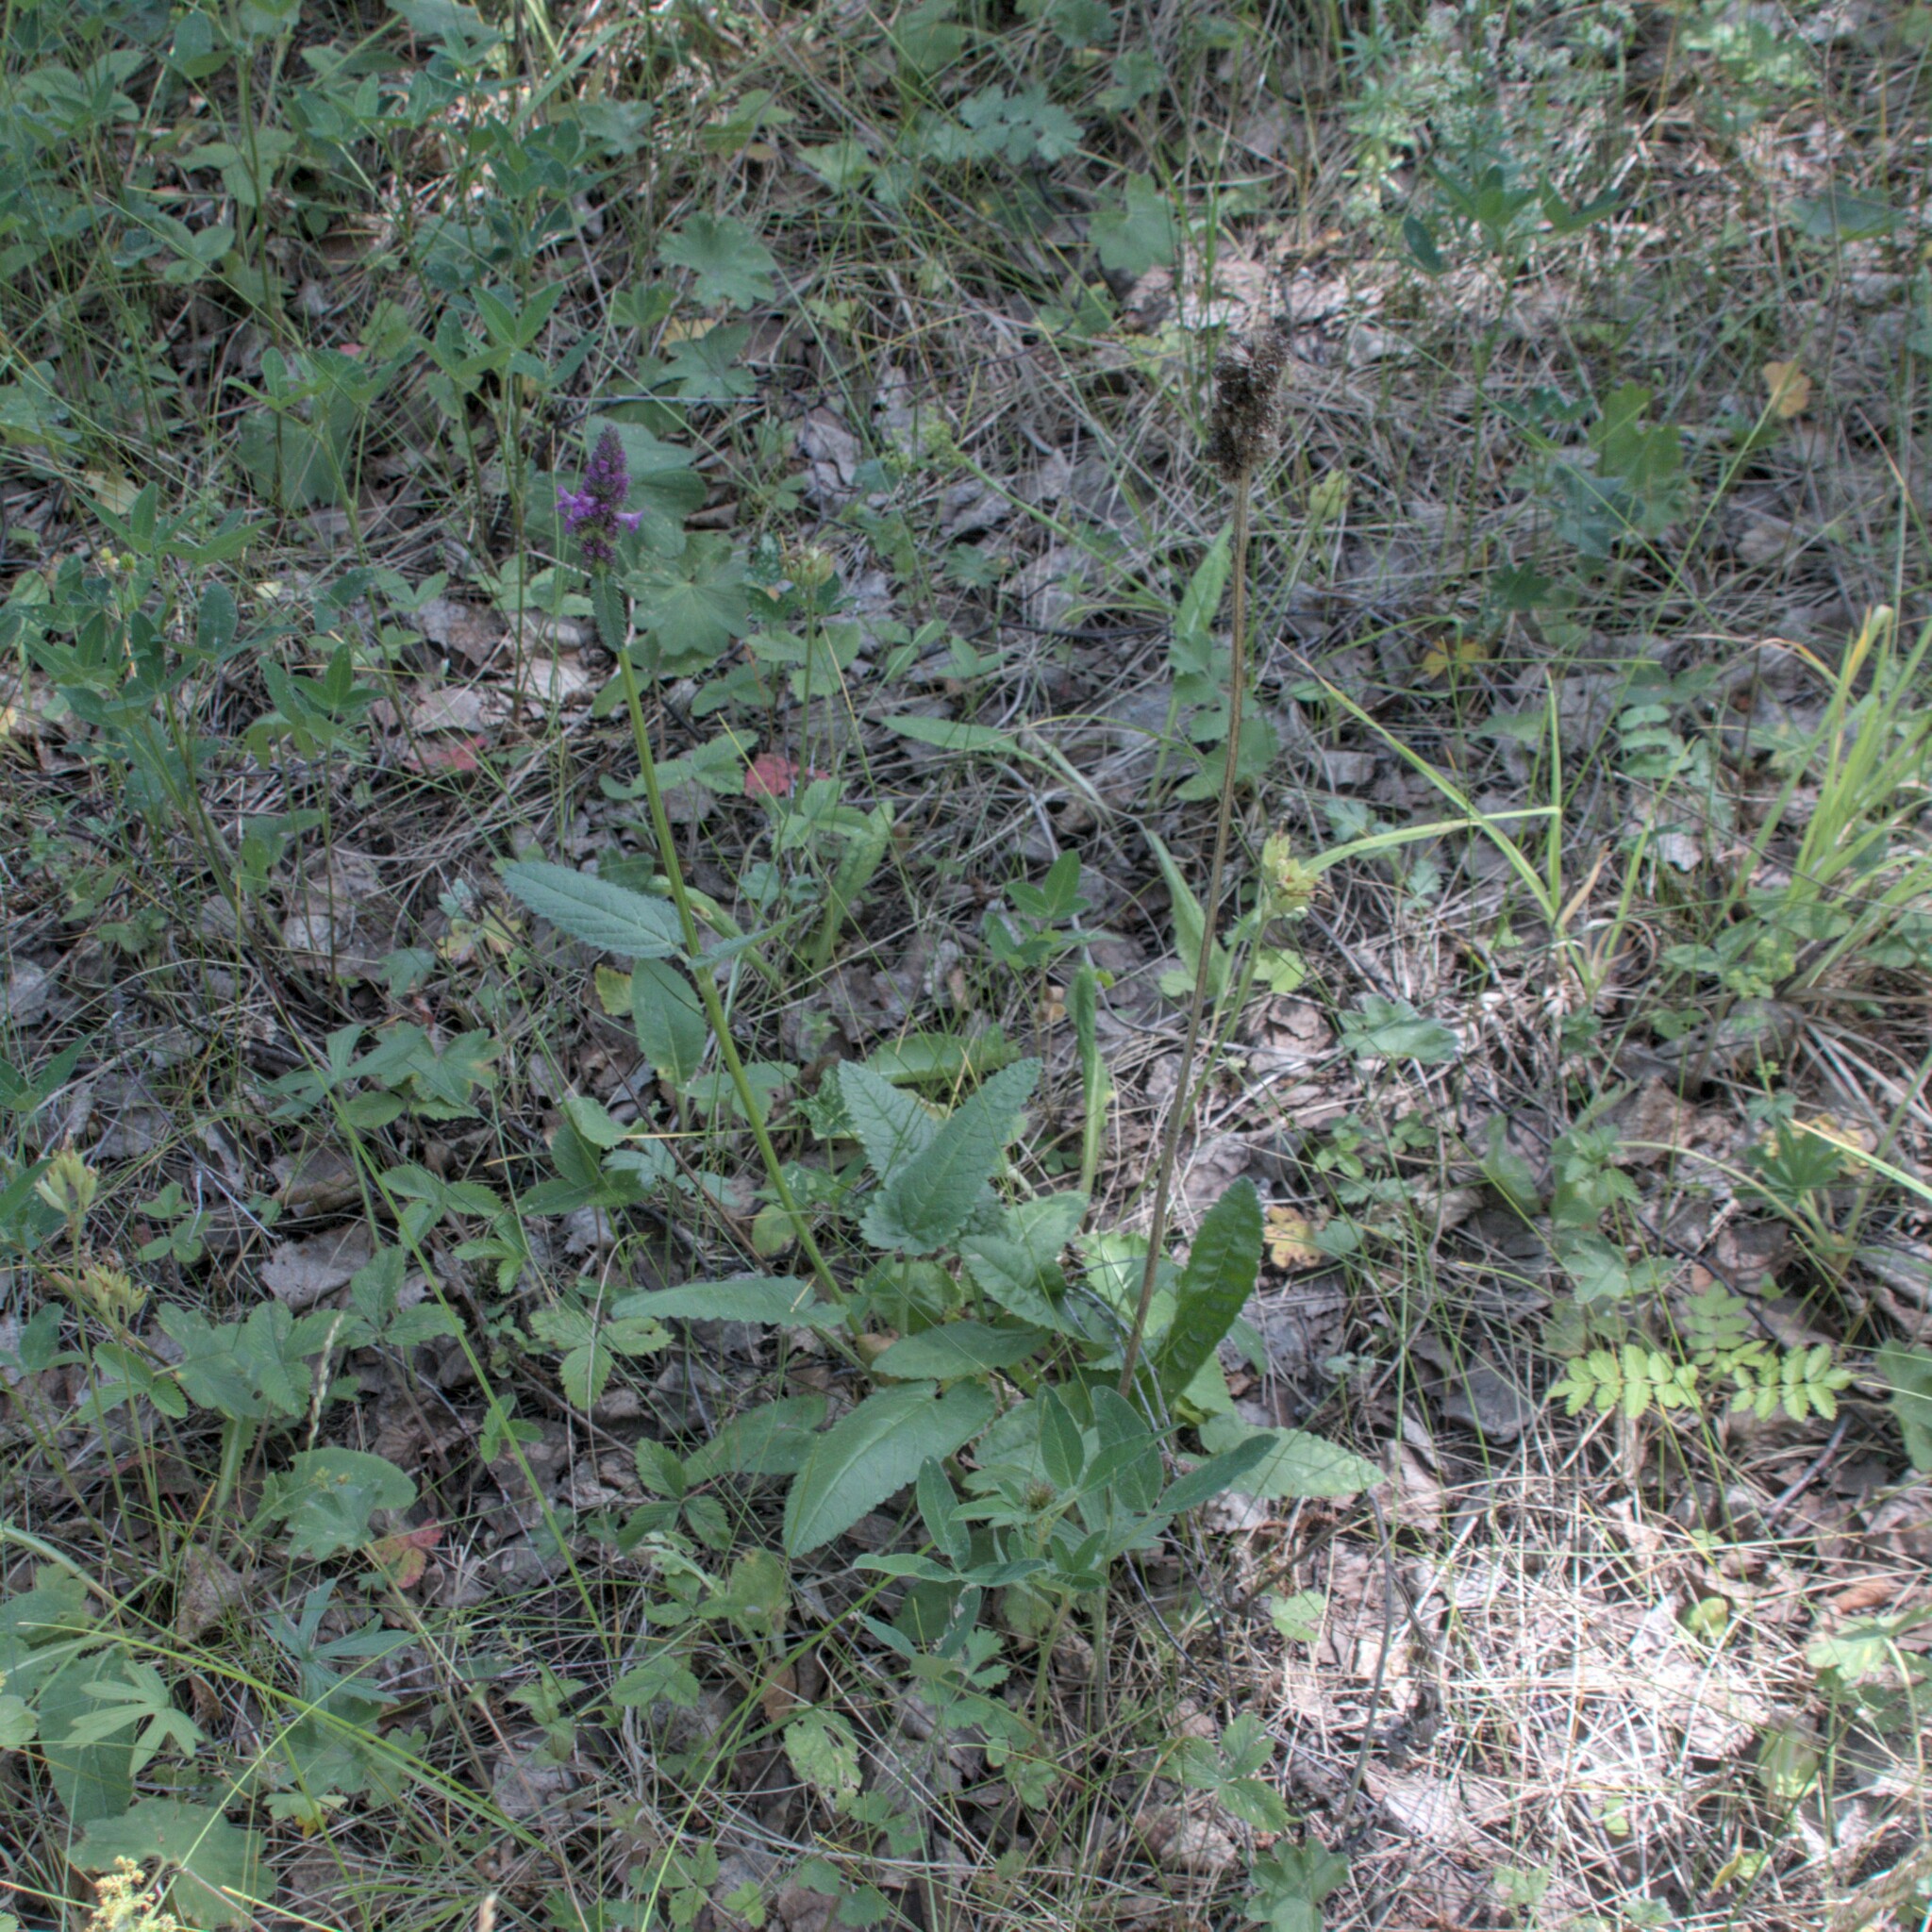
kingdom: Plantae
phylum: Tracheophyta
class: Magnoliopsida
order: Lamiales
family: Lamiaceae
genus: Betonica
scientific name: Betonica officinalis
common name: Bishop's-wort
